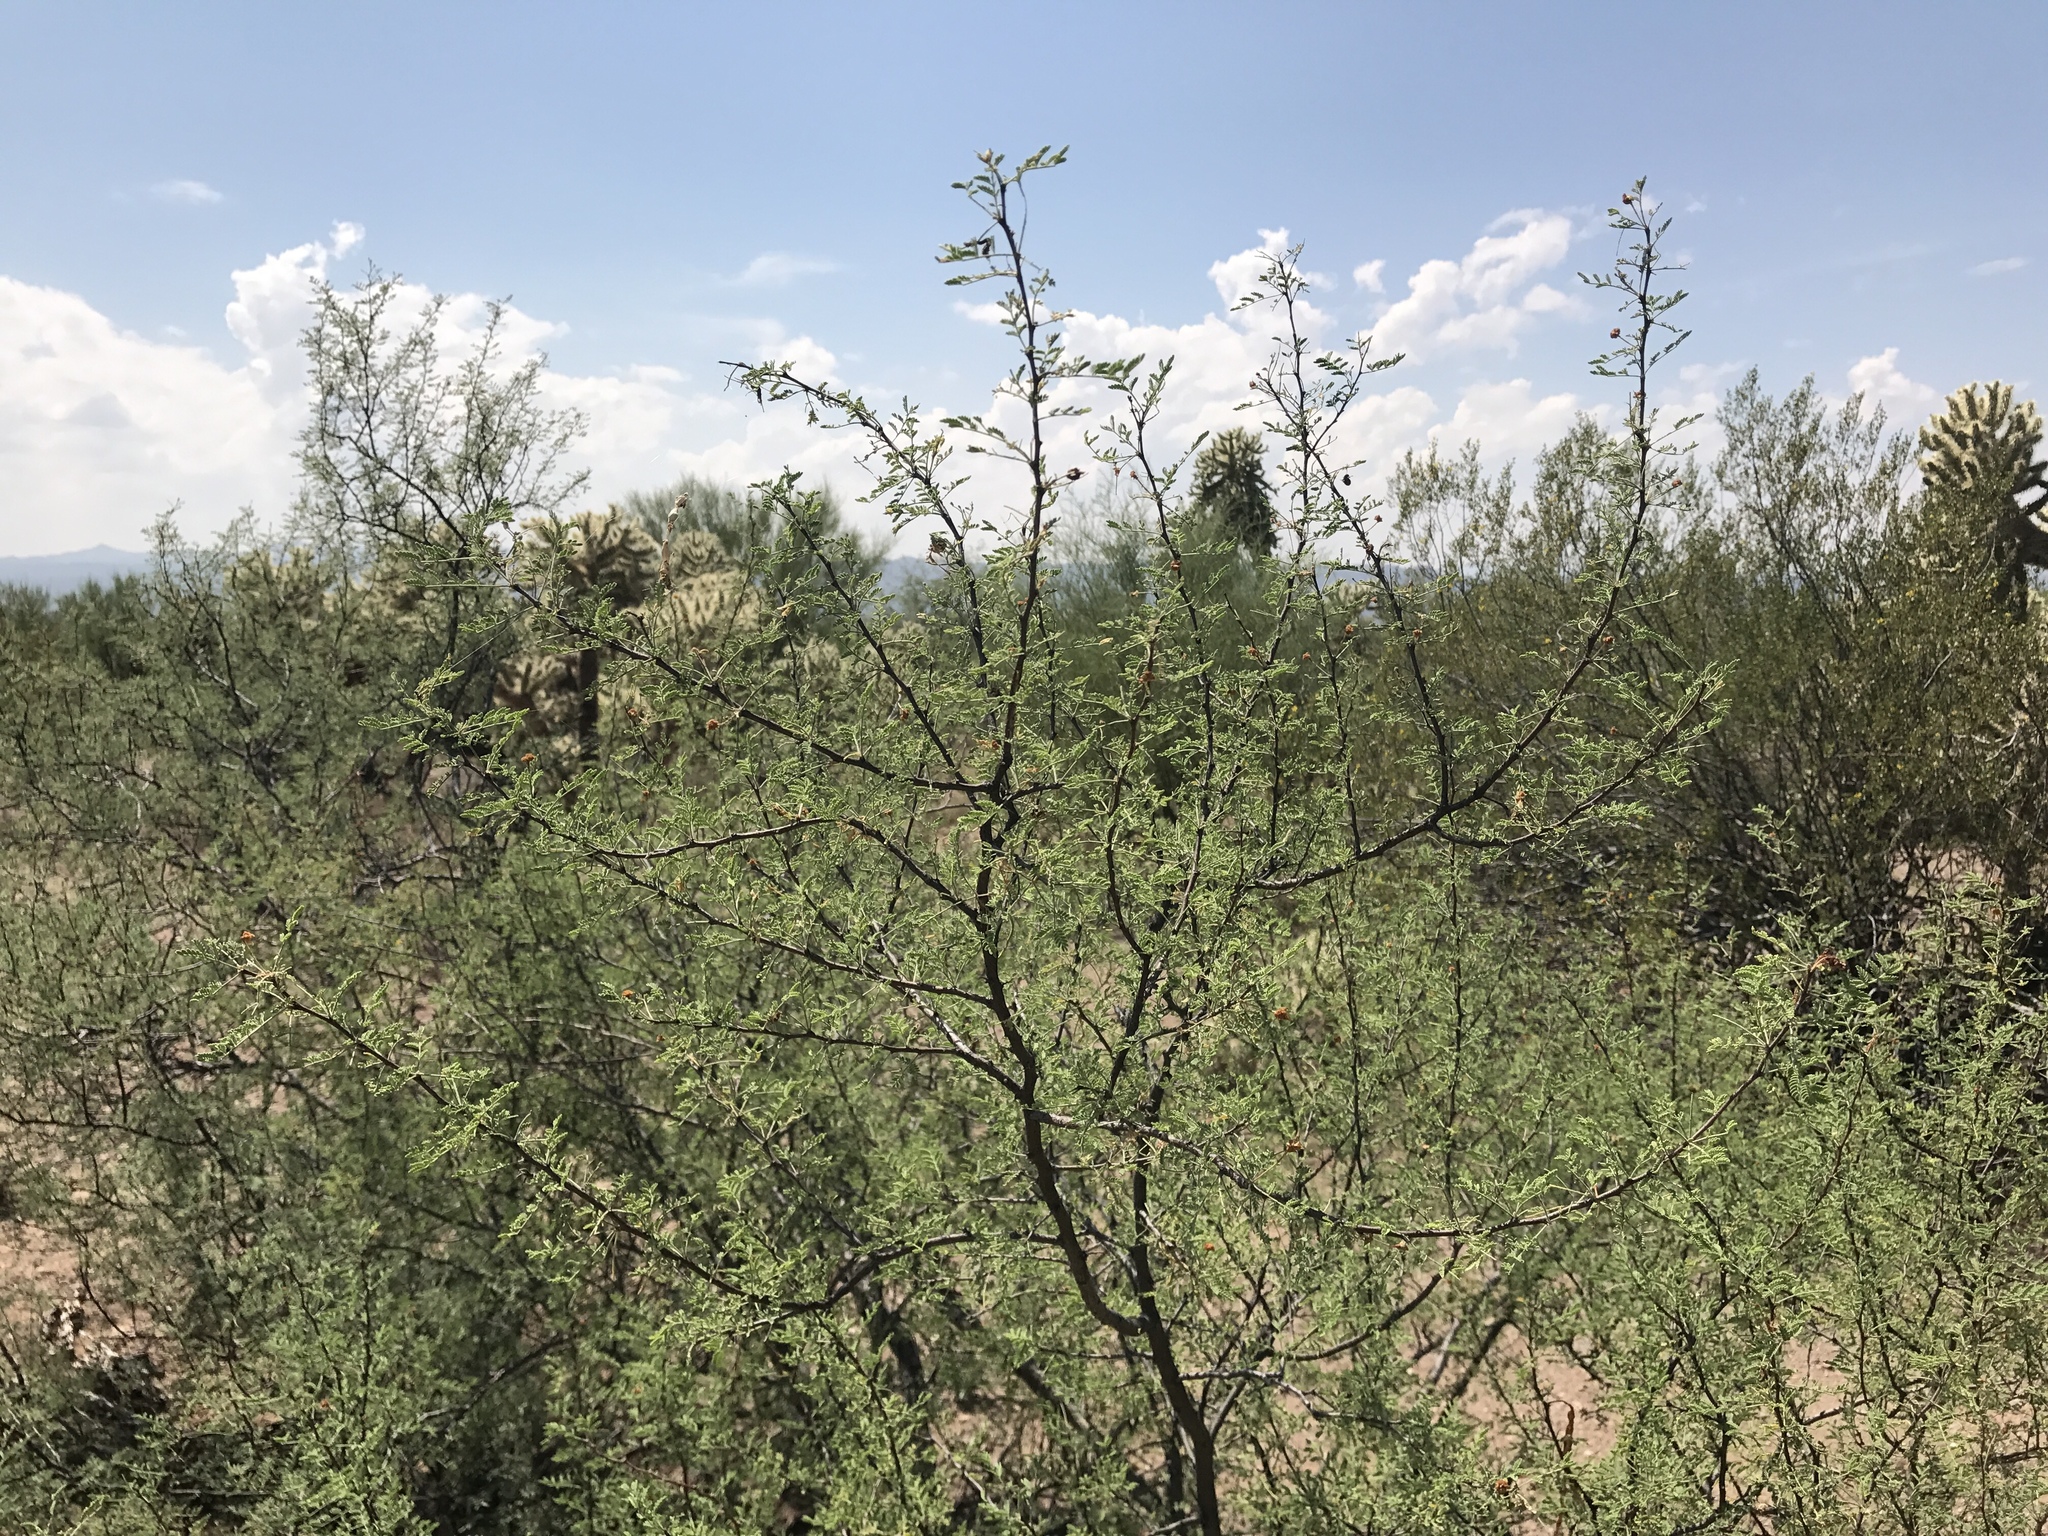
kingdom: Plantae
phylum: Tracheophyta
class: Magnoliopsida
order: Fabales
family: Fabaceae
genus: Vachellia
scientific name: Vachellia constricta
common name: Mescat acacia
